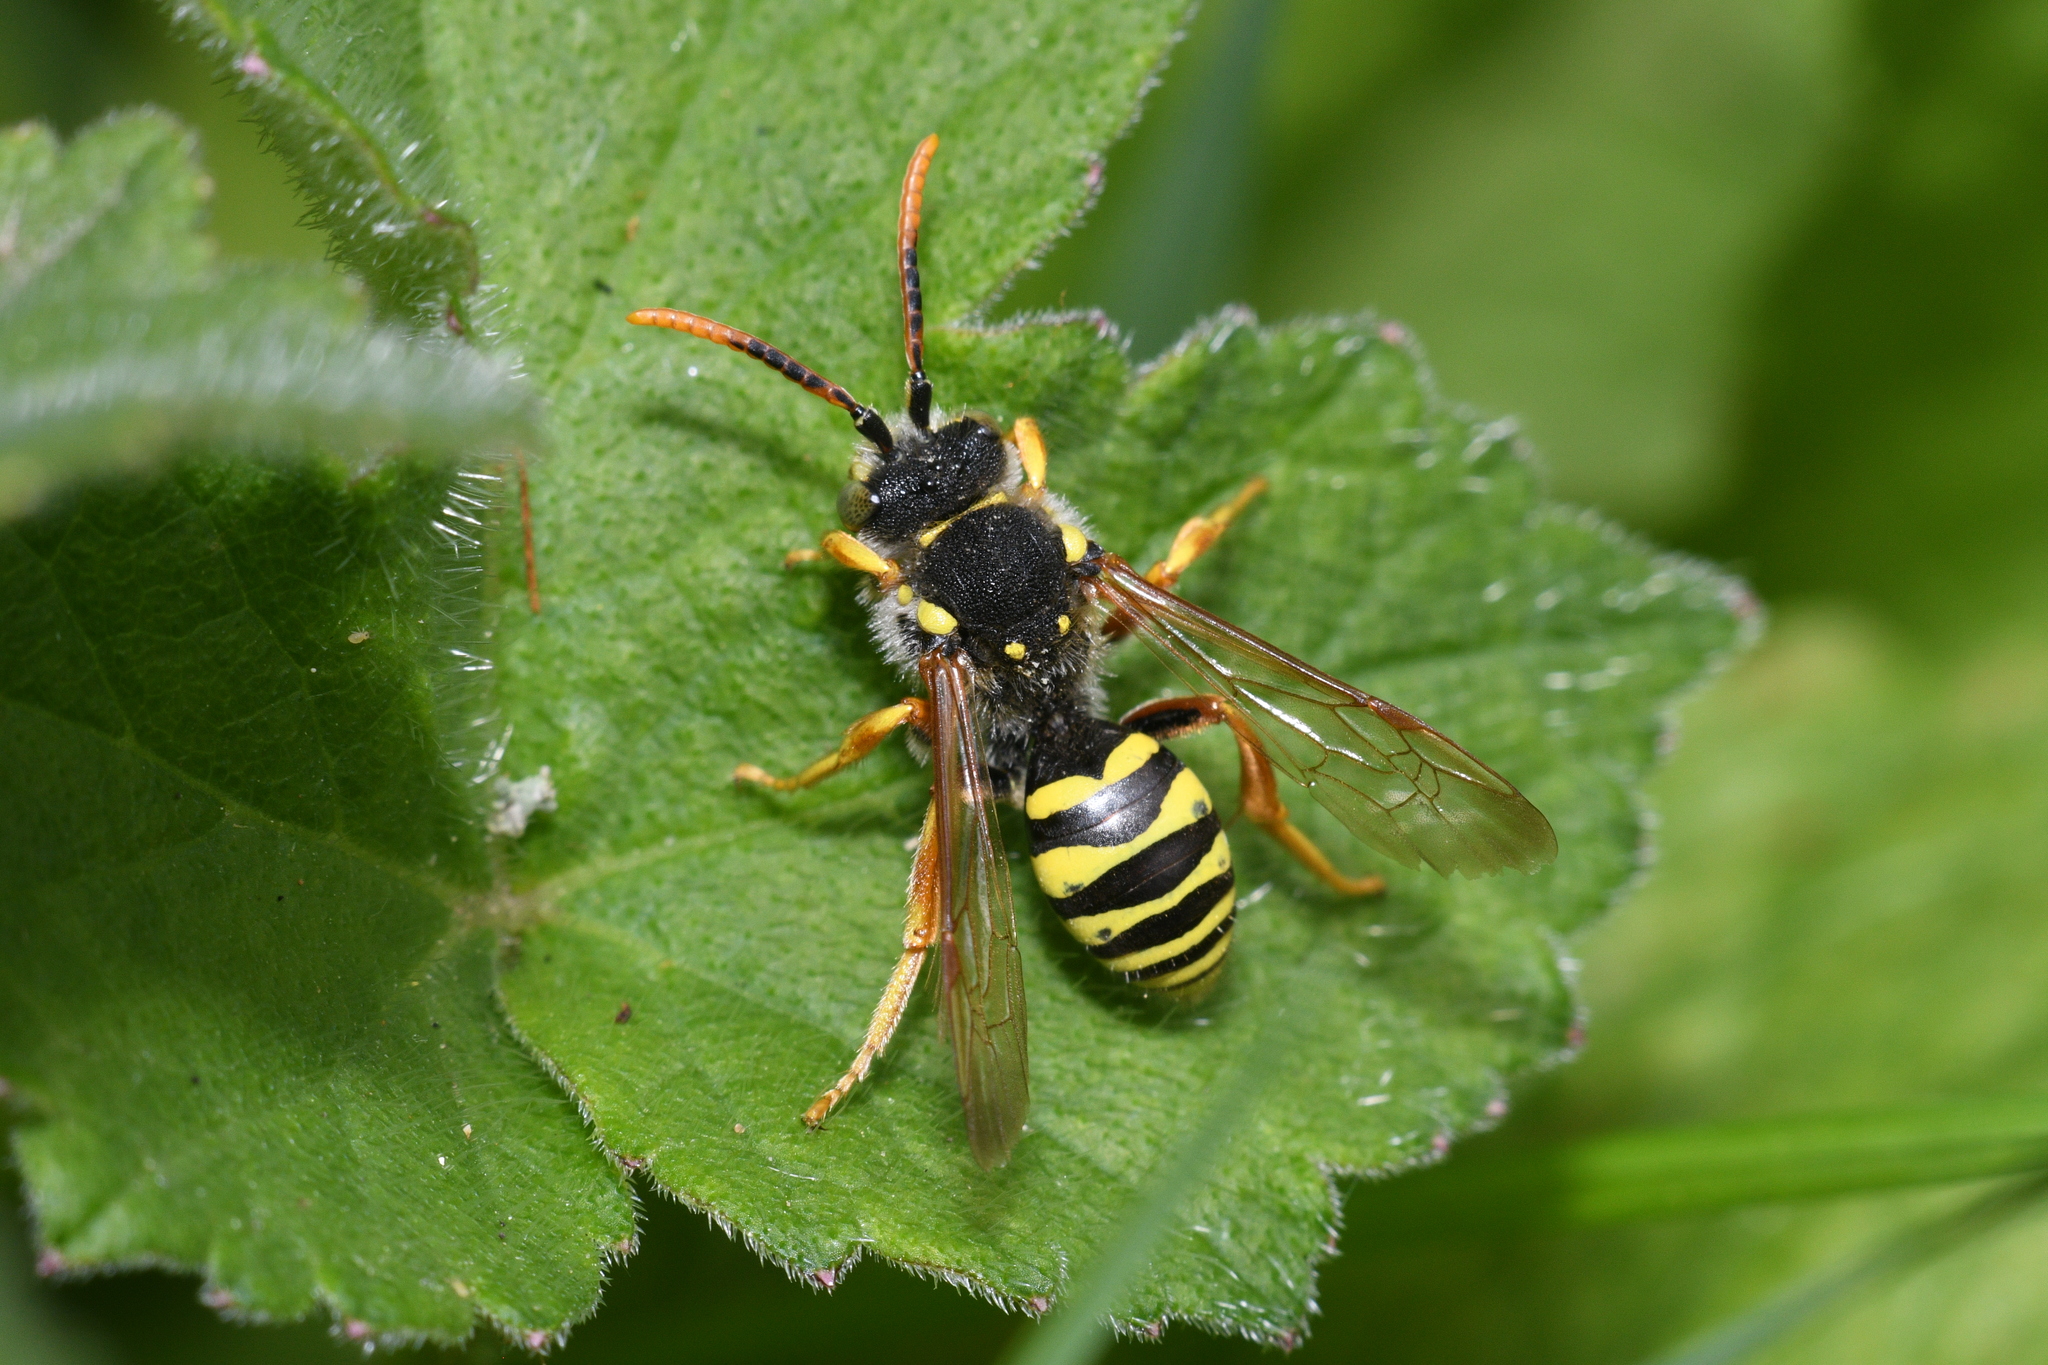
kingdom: Animalia
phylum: Arthropoda
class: Insecta
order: Hymenoptera
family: Apidae
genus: Nomada
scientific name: Nomada goodeniana
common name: Gooden's nomad bee
